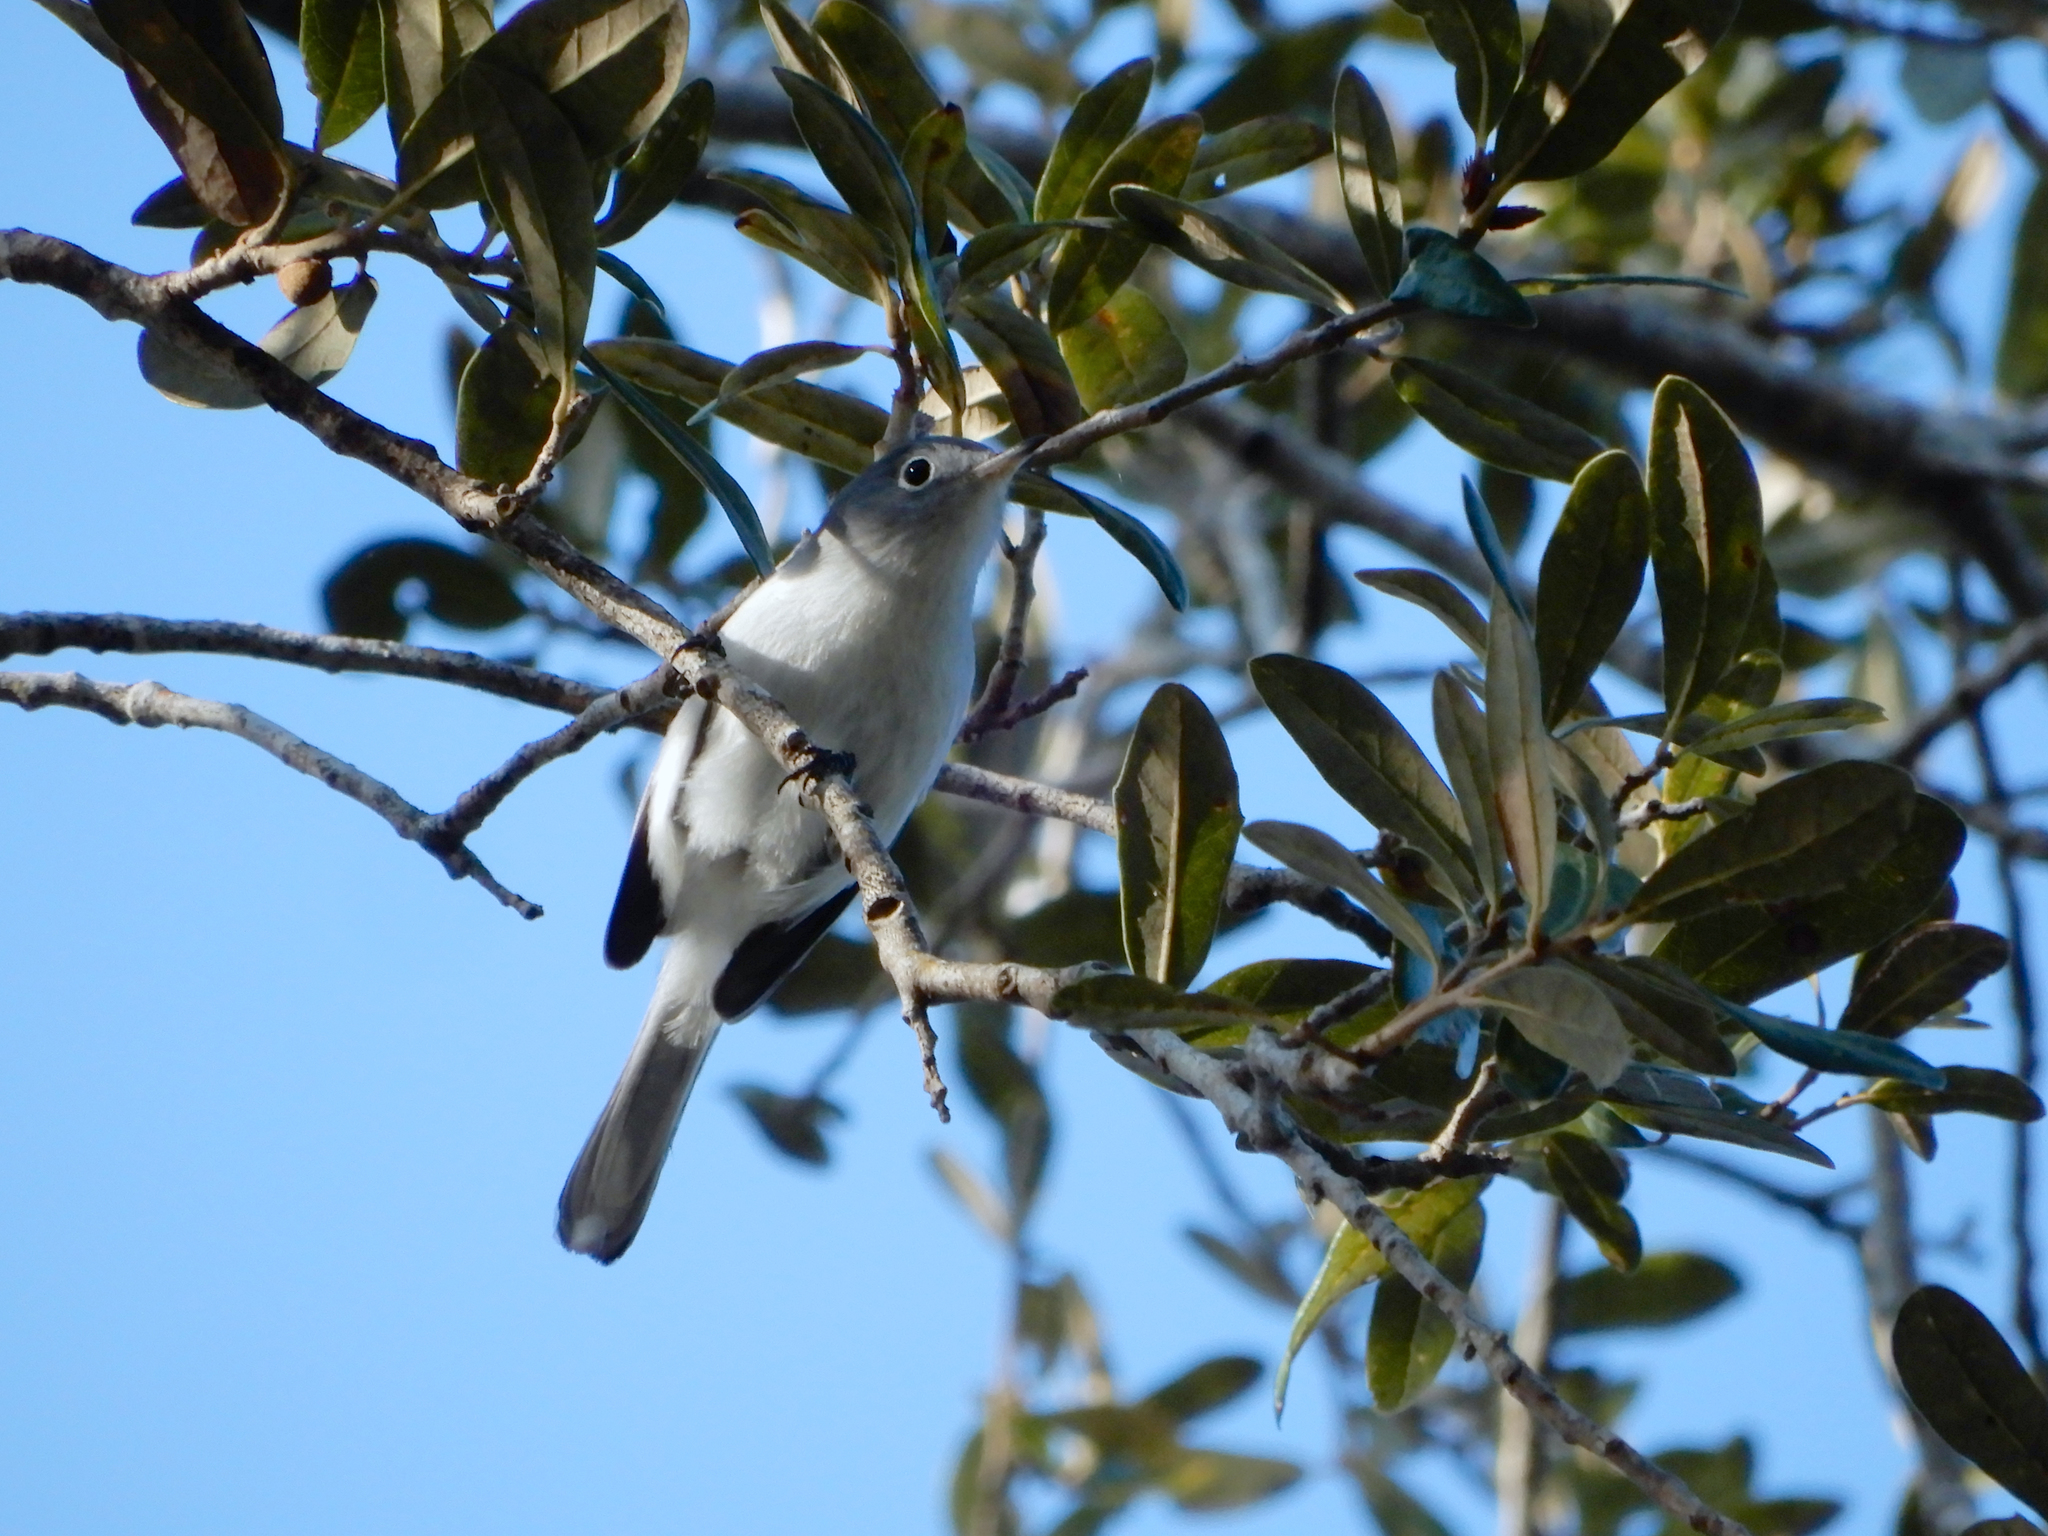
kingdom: Animalia
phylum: Chordata
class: Aves
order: Passeriformes
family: Polioptilidae
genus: Polioptila
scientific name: Polioptila caerulea
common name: Blue-gray gnatcatcher
